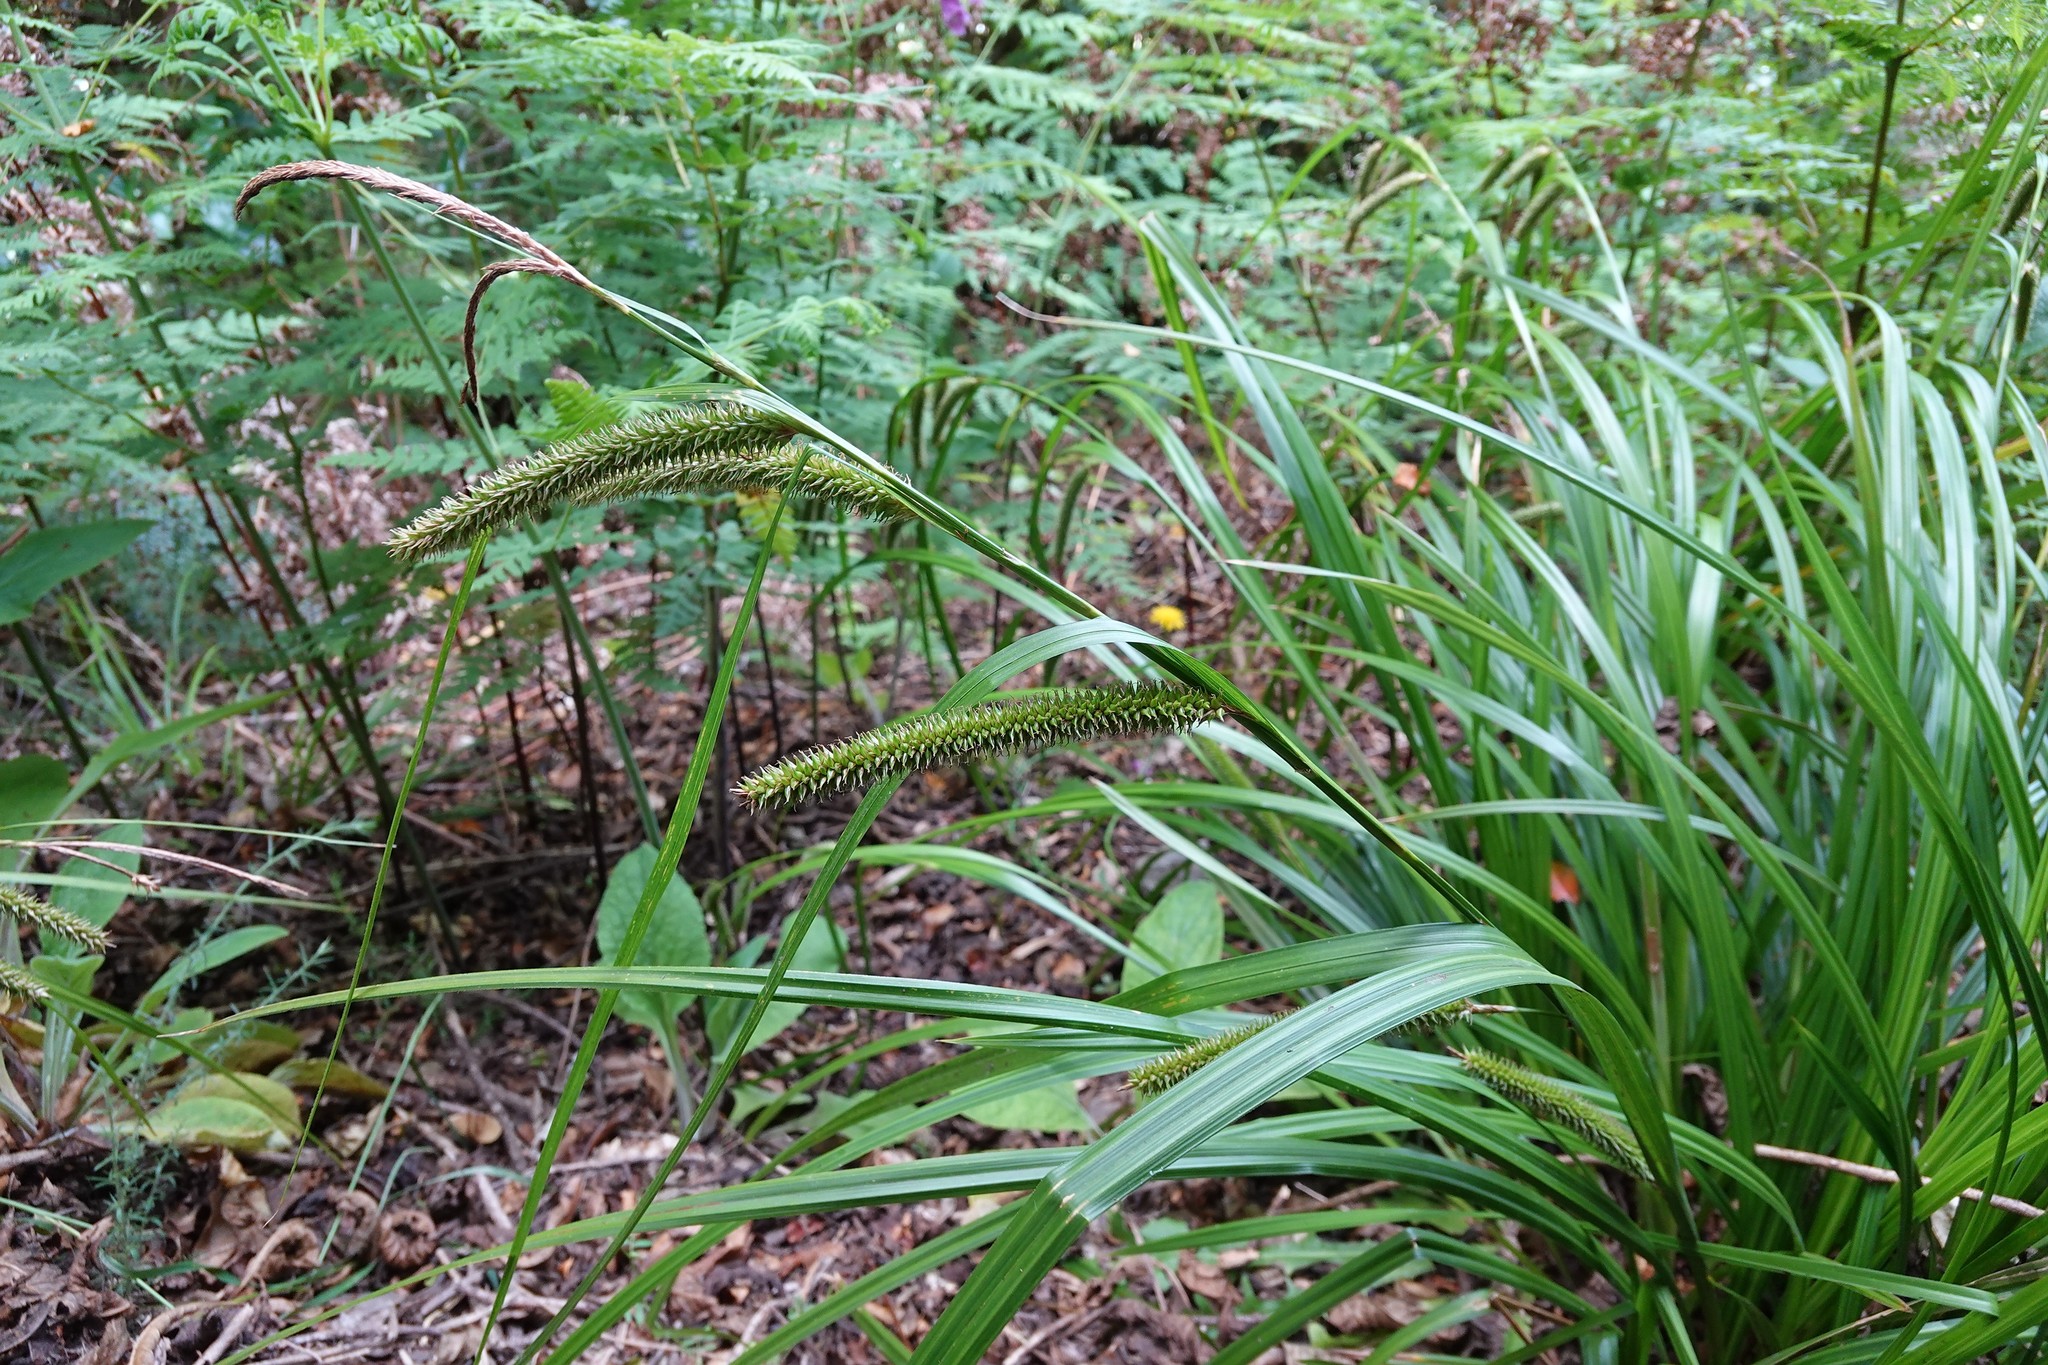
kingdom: Plantae
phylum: Tracheophyta
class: Liliopsida
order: Poales
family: Cyperaceae
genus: Carex
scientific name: Carex forsteri
